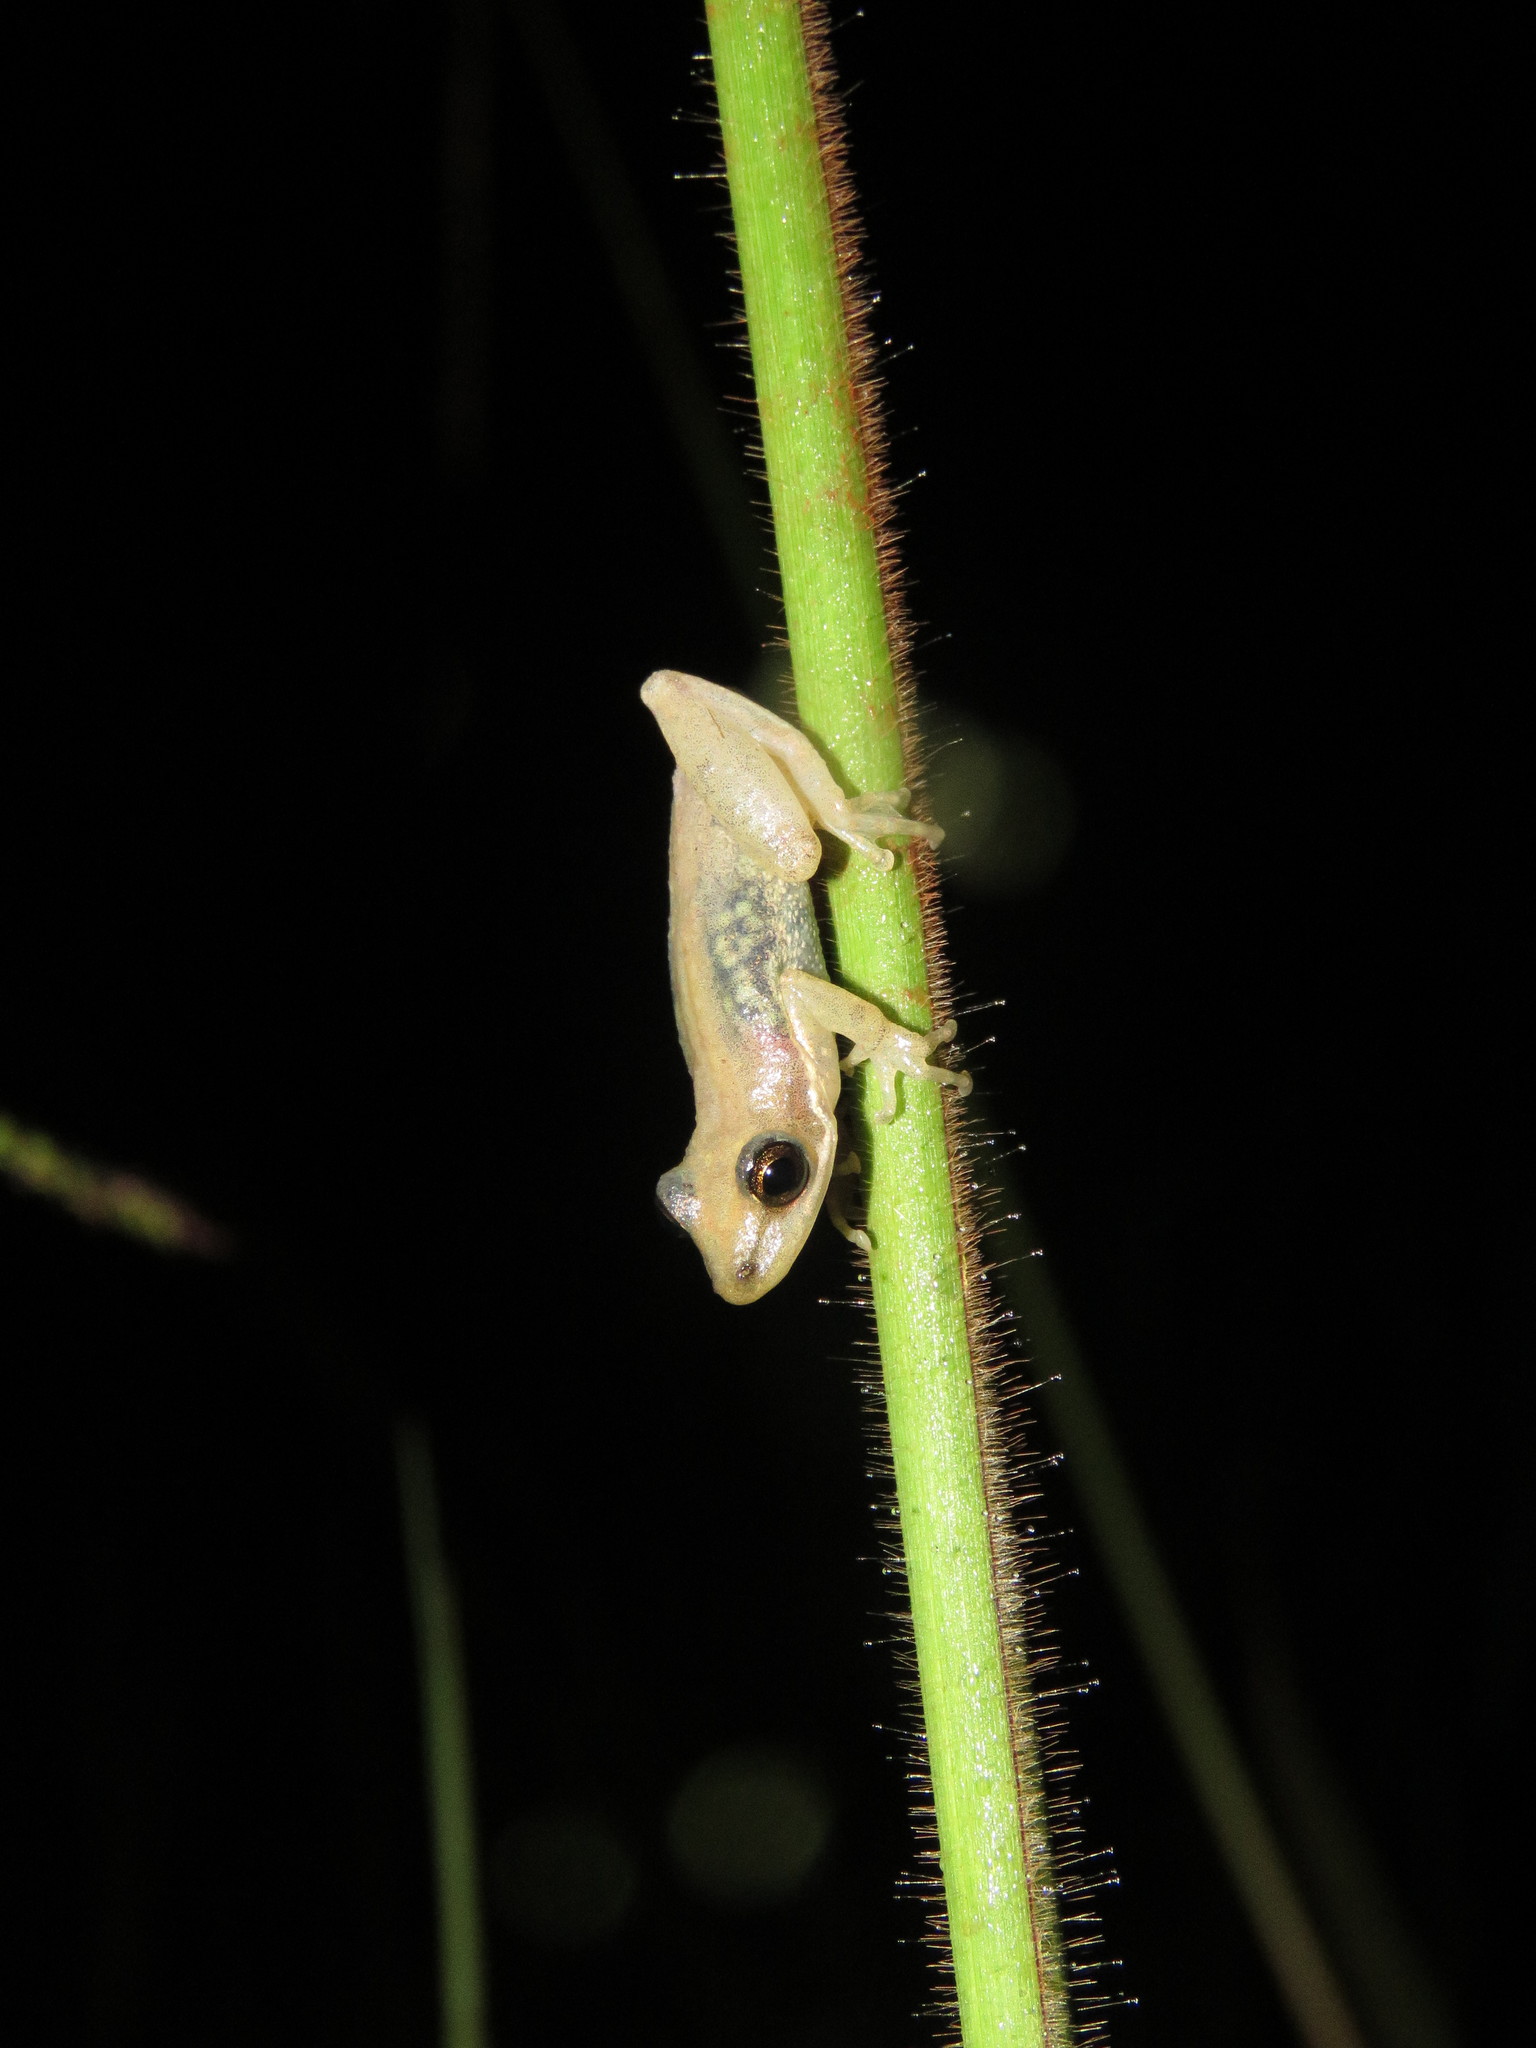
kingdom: Animalia
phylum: Chordata
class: Amphibia
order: Anura
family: Hylidae
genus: Scinax
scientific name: Scinax fuscomarginatus
